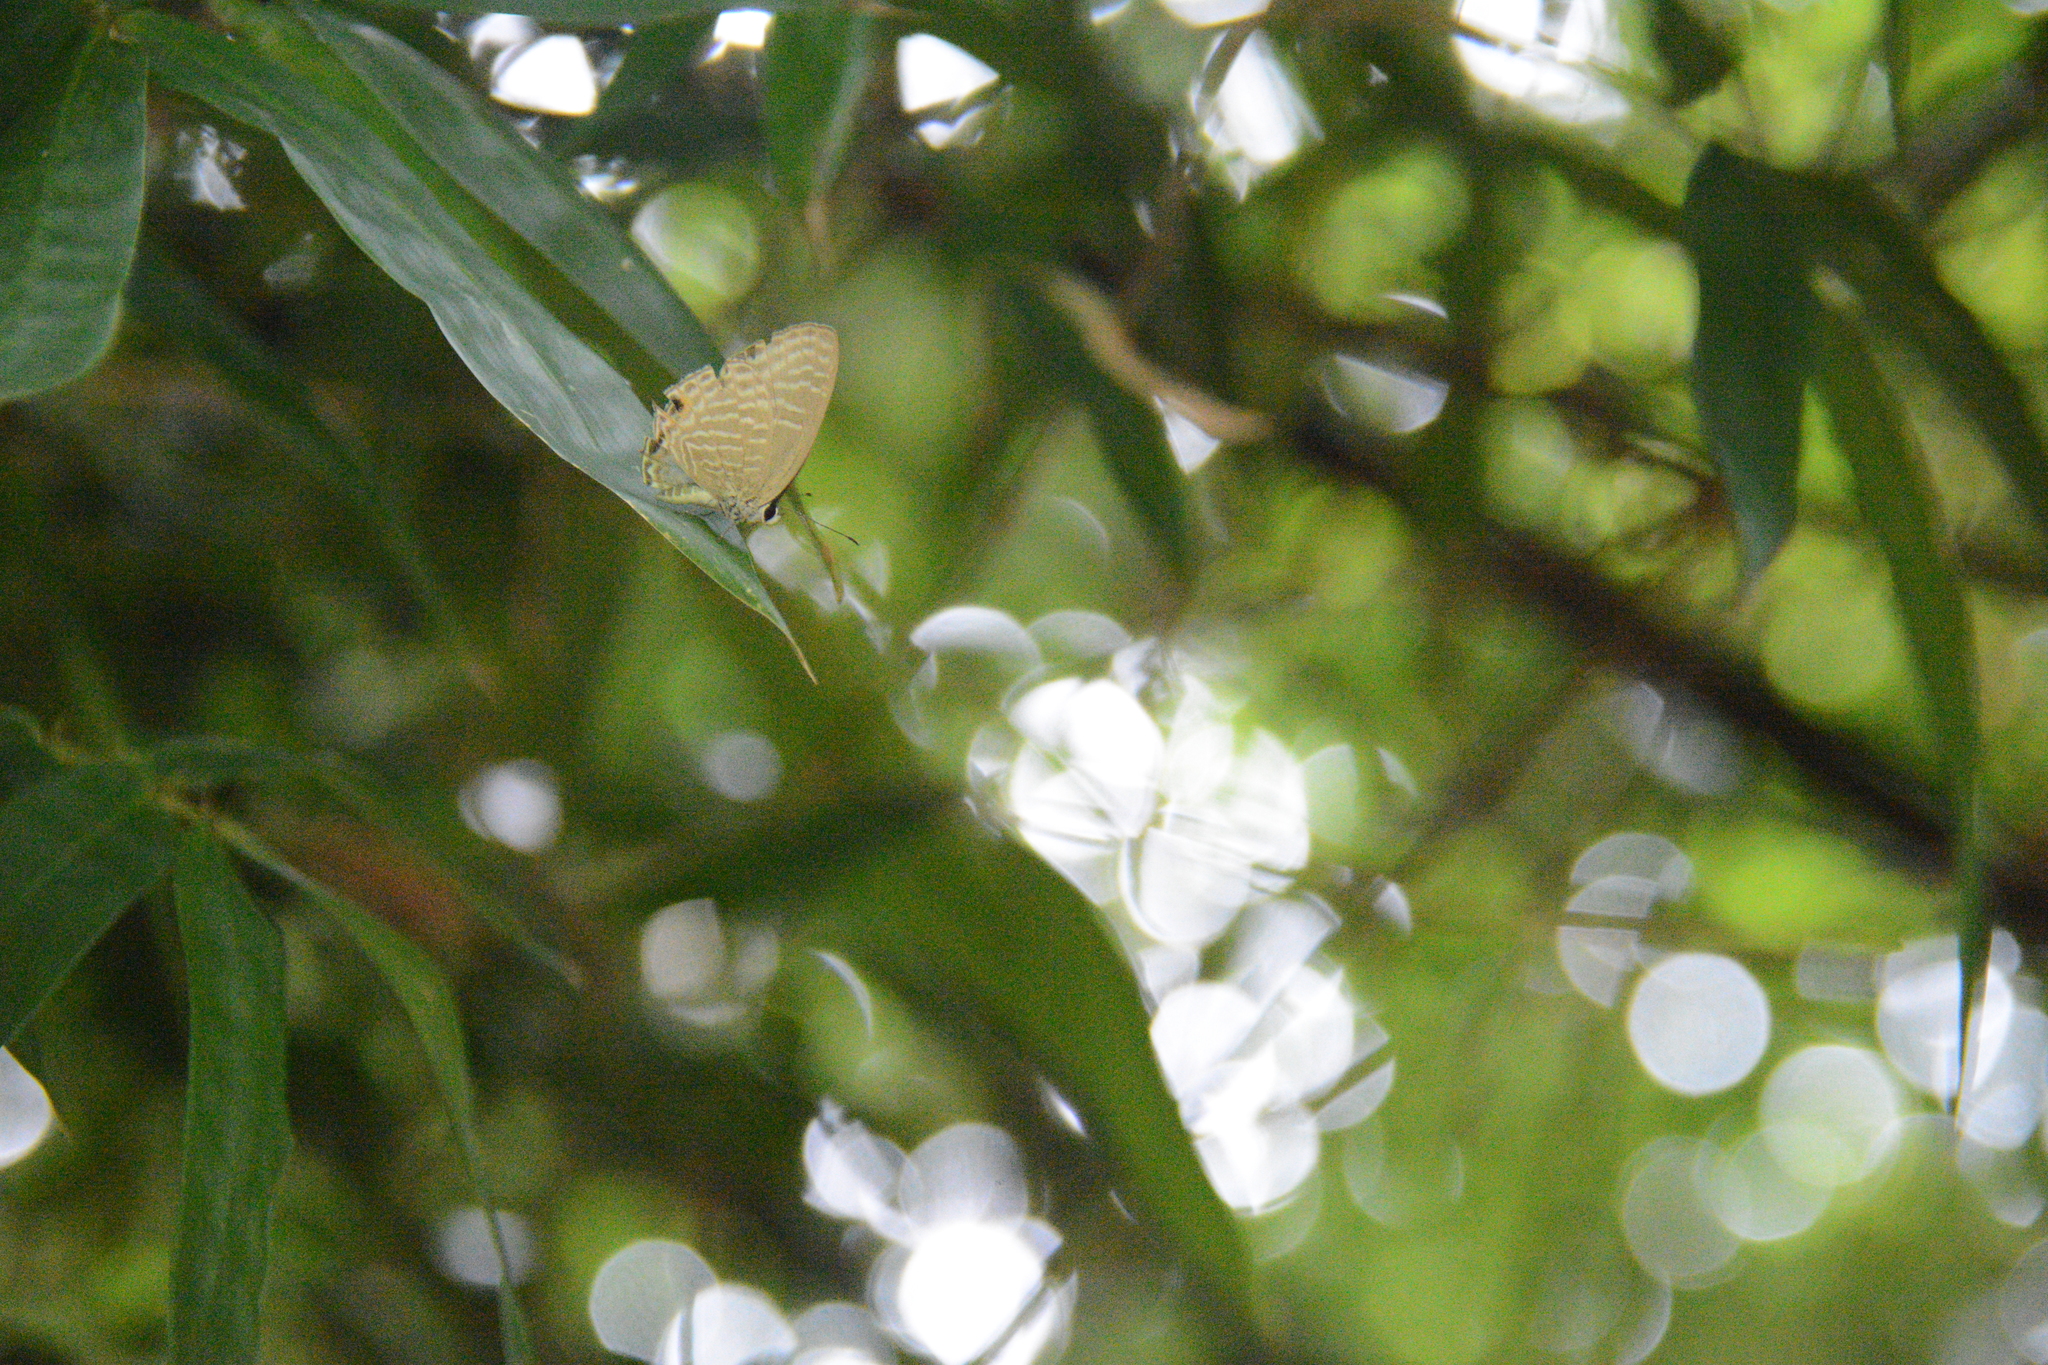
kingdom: Animalia
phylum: Arthropoda
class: Insecta
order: Lepidoptera
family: Lycaenidae
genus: Jamides
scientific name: Jamides alecto
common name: Metallic cerulean
